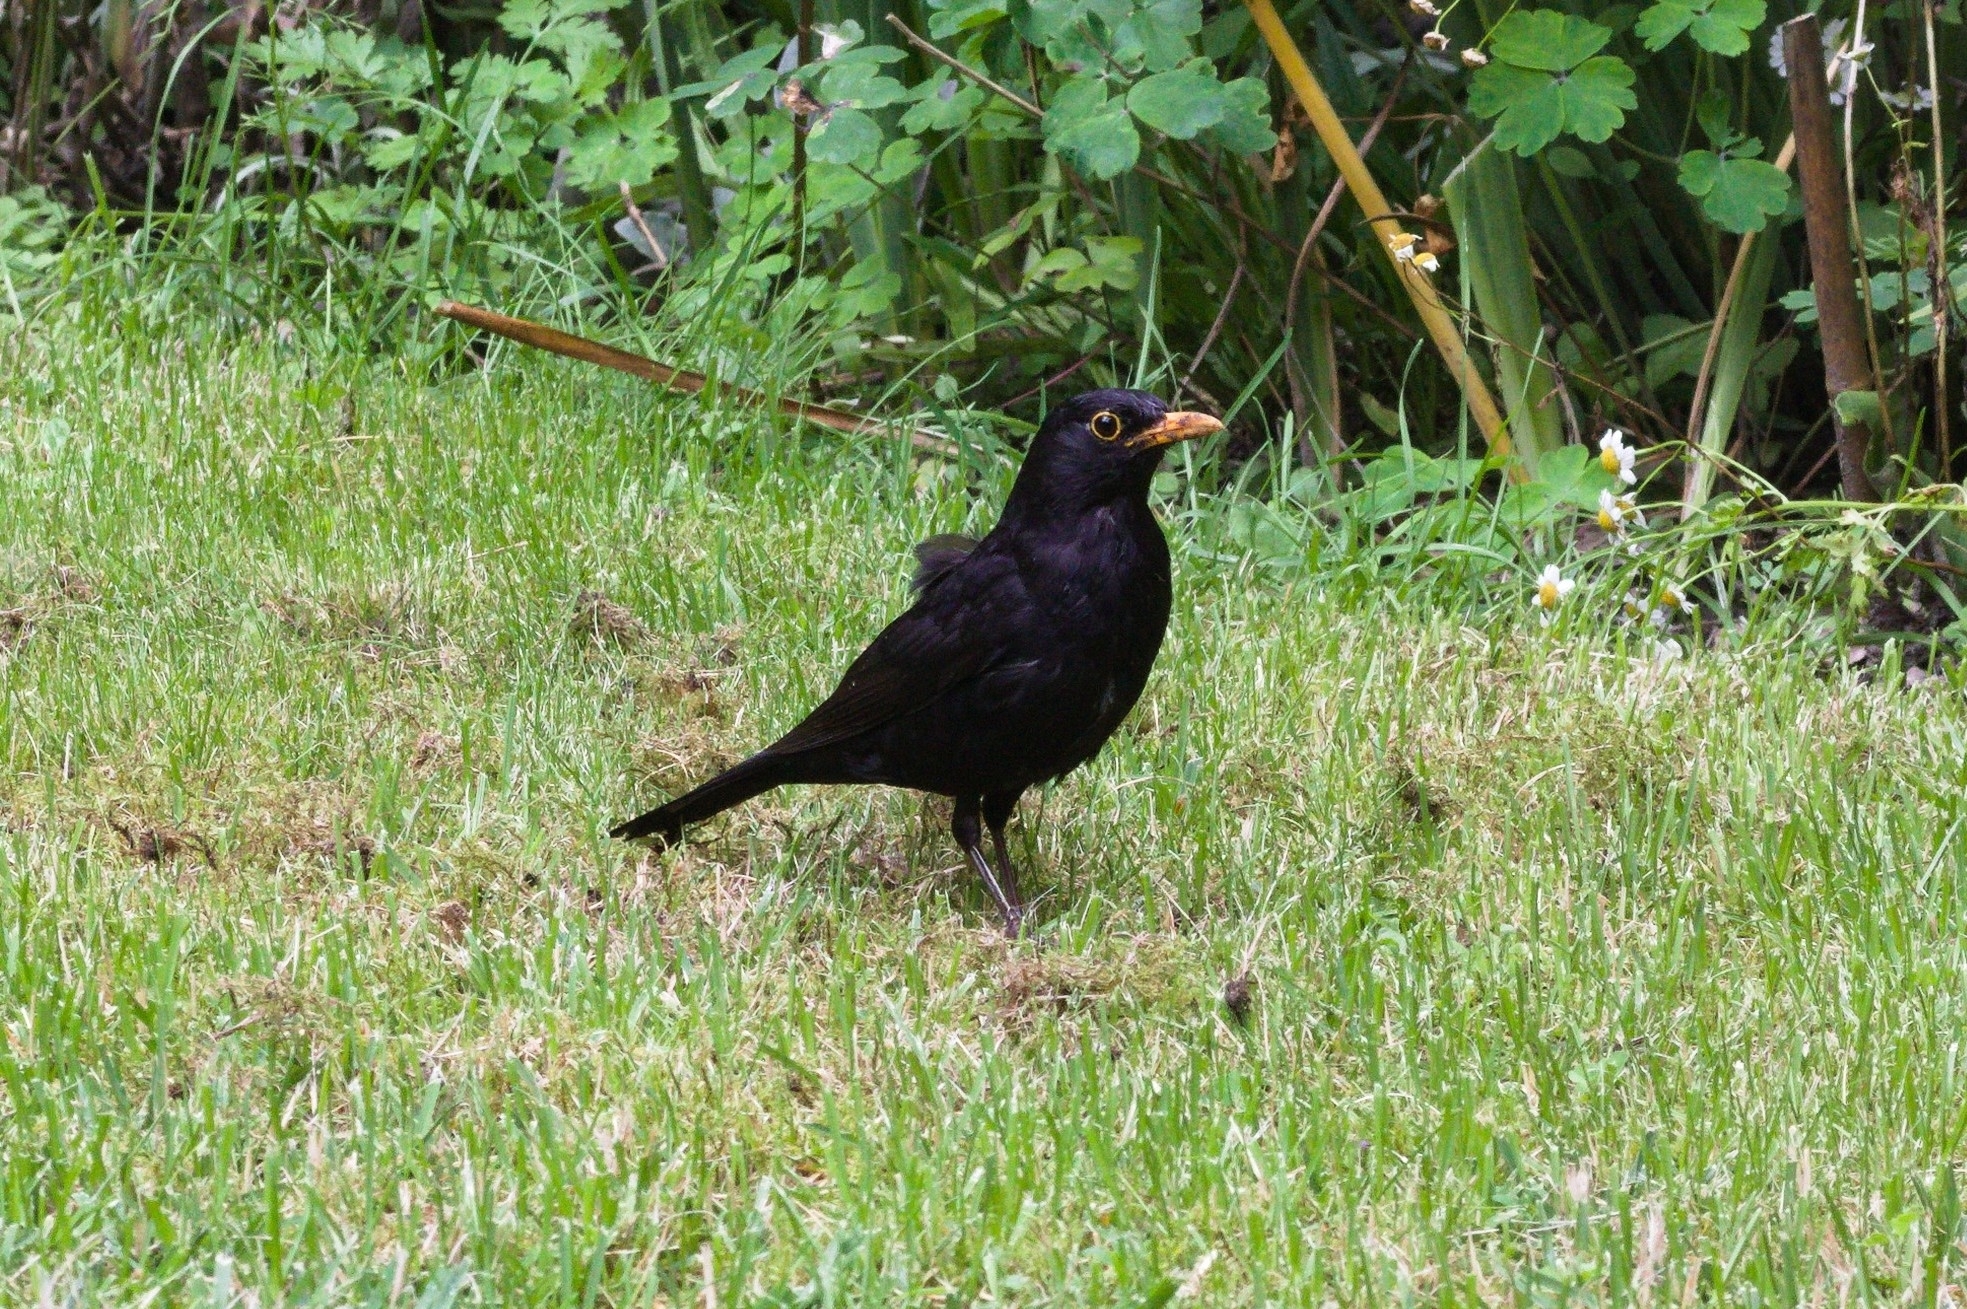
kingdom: Animalia
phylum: Chordata
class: Aves
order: Passeriformes
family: Turdidae
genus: Turdus
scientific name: Turdus merula
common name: Common blackbird
